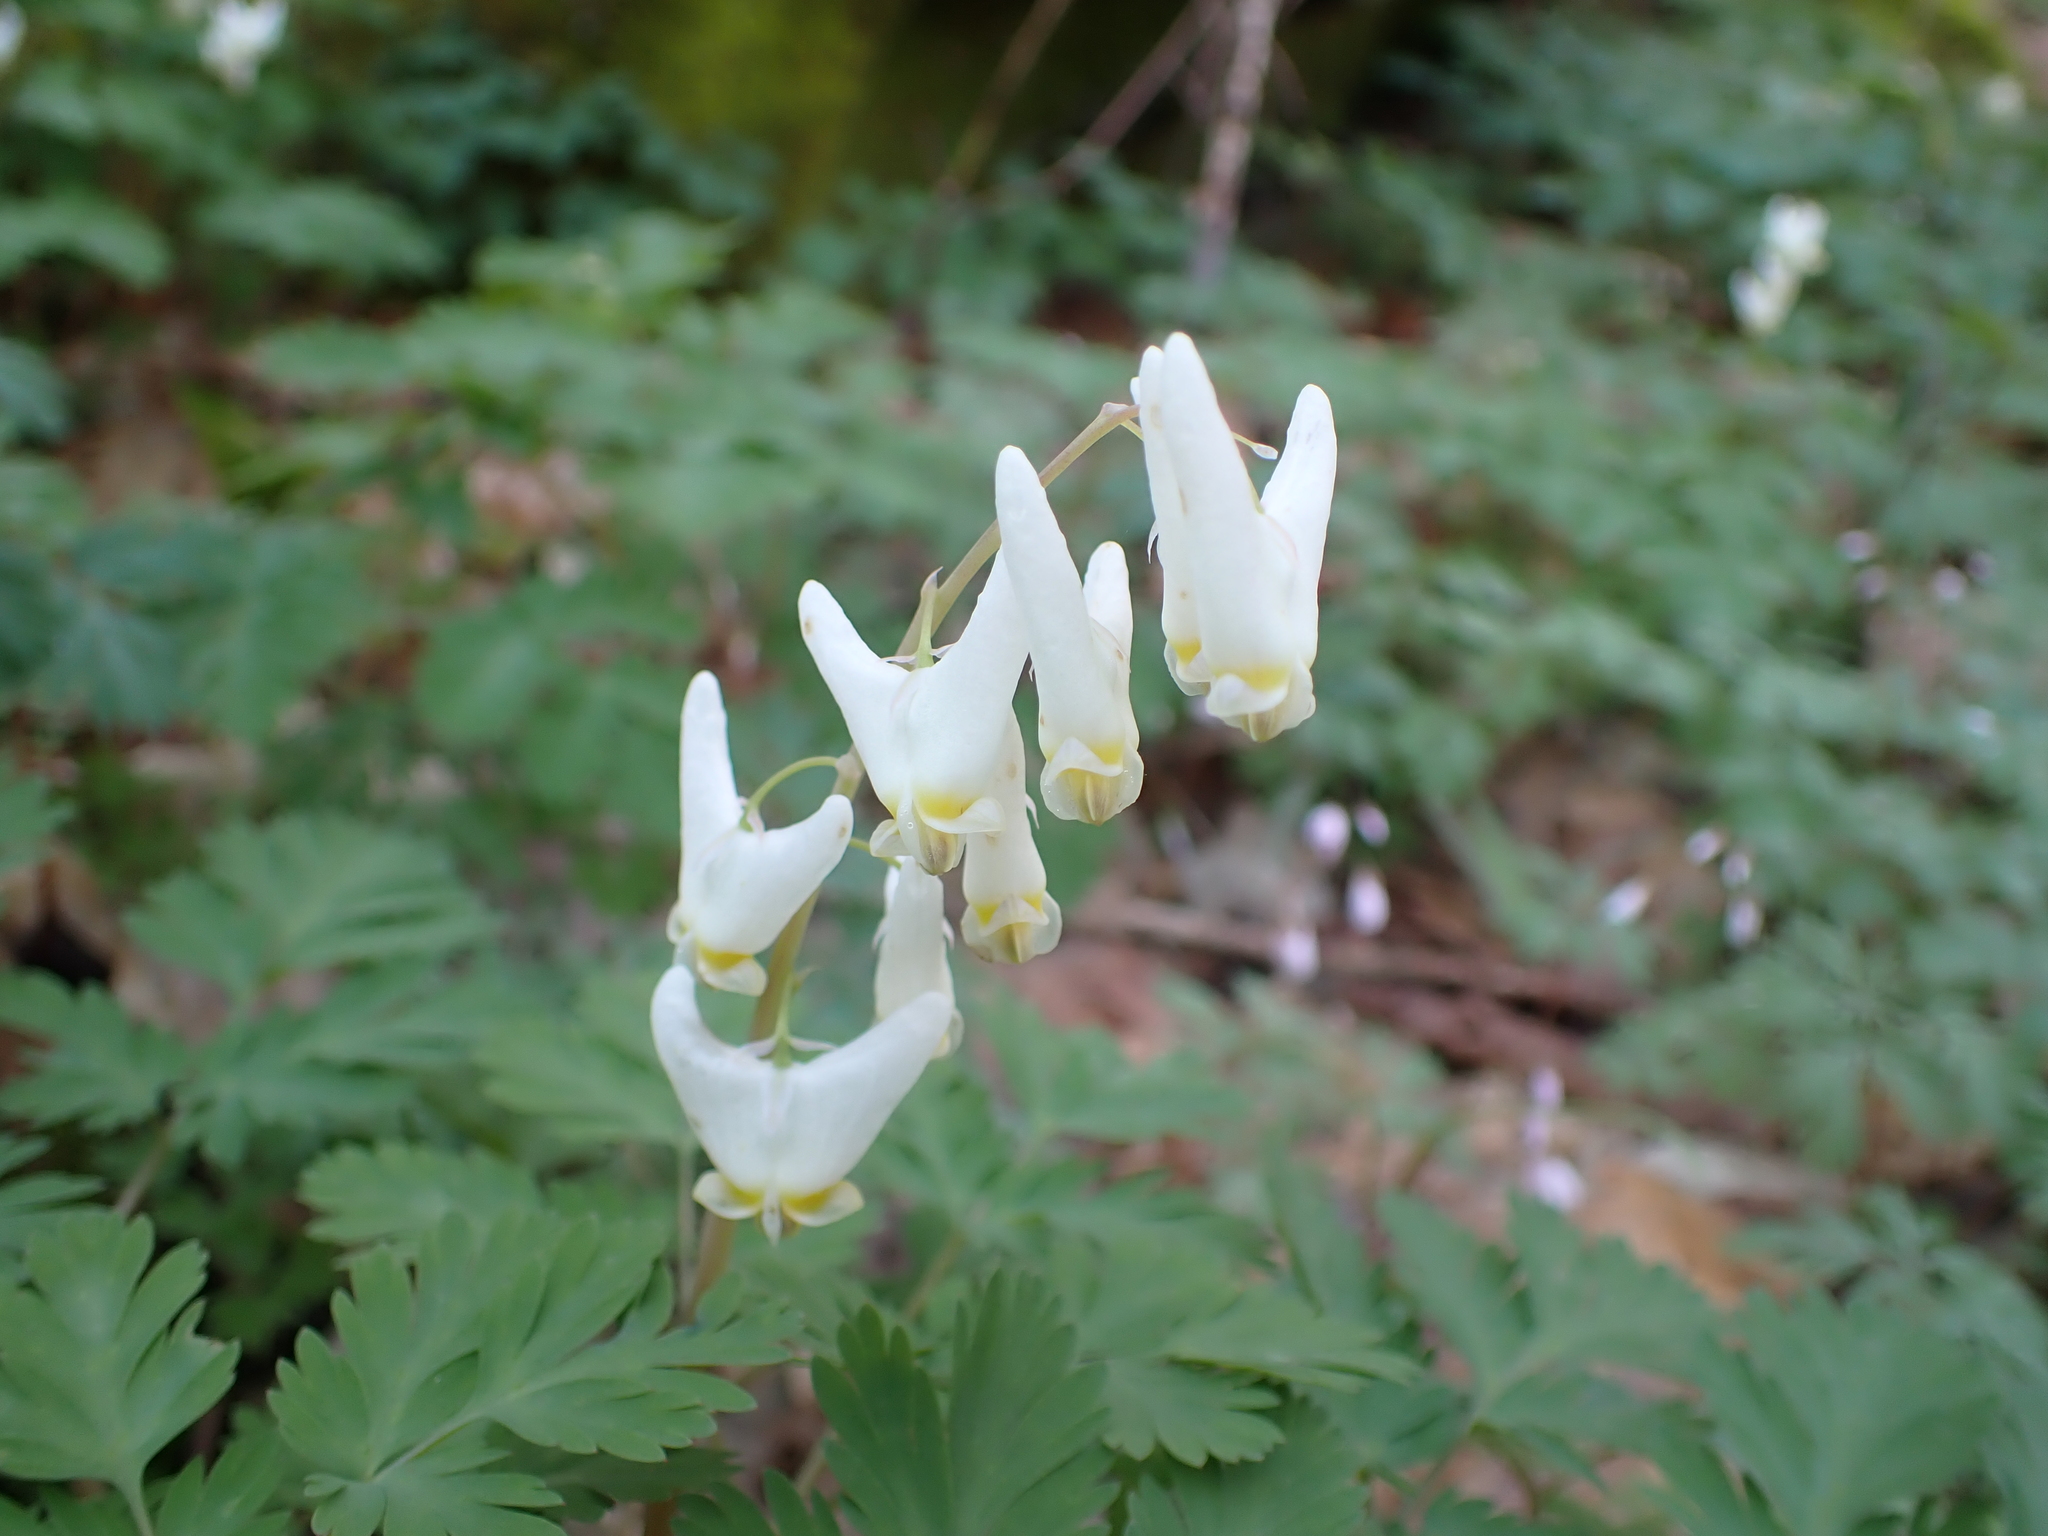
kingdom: Plantae
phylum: Tracheophyta
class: Magnoliopsida
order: Ranunculales
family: Papaveraceae
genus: Dicentra
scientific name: Dicentra cucullaria
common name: Dutchman's breeches
